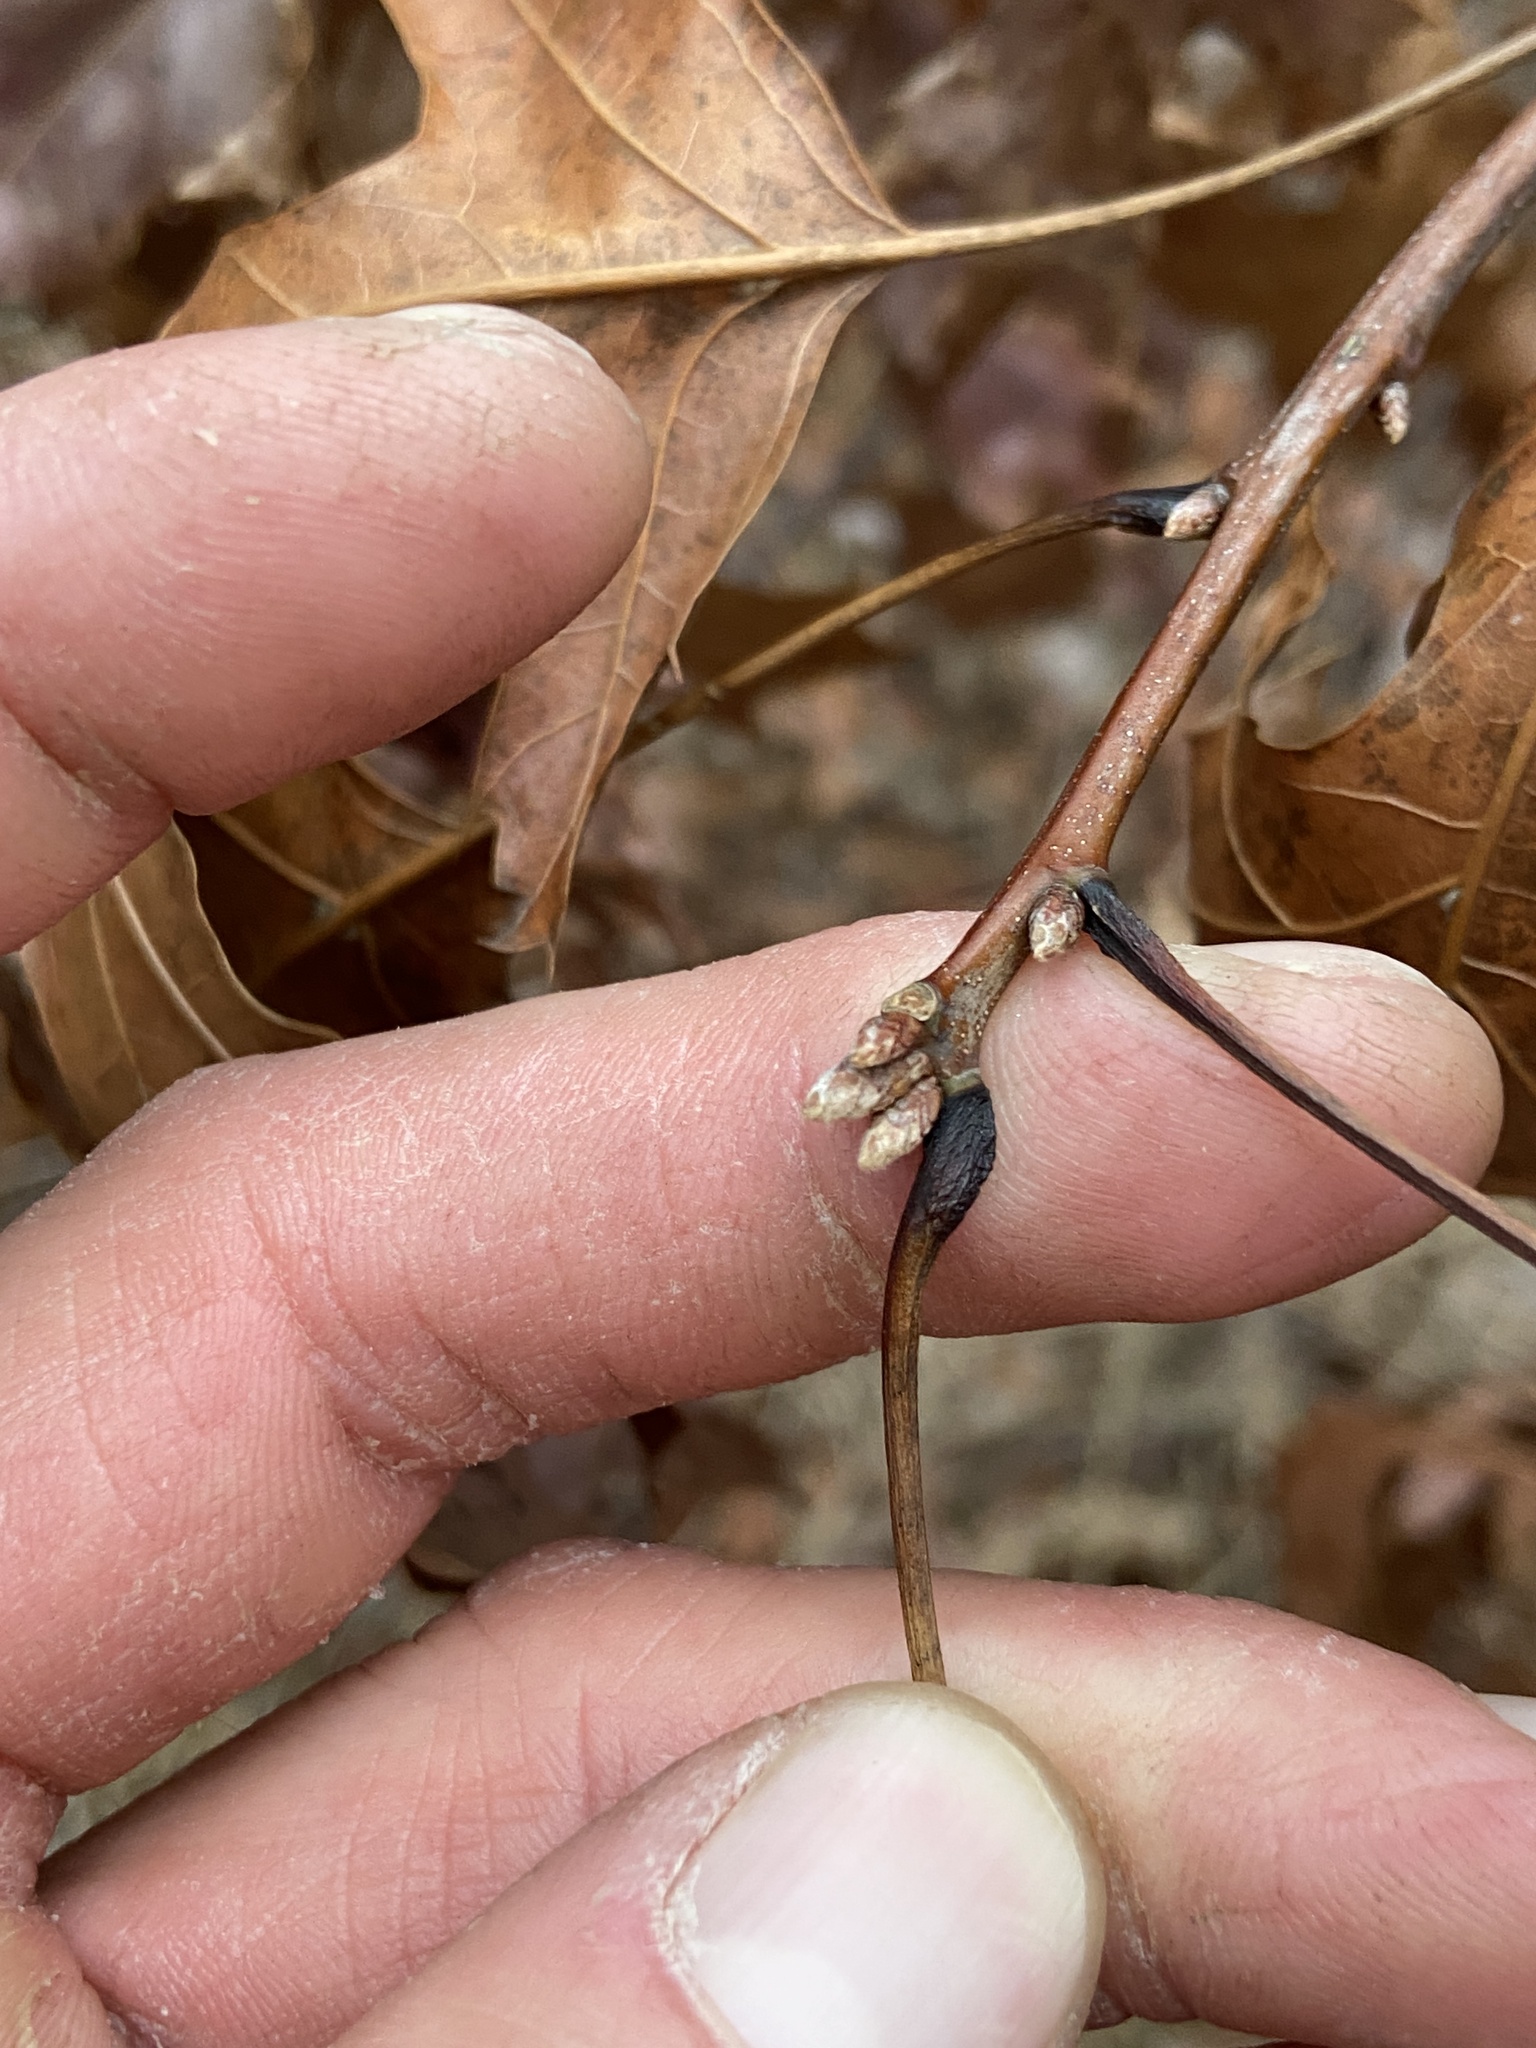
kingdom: Plantae
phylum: Tracheophyta
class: Magnoliopsida
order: Fagales
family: Fagaceae
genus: Quercus
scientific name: Quercus coccinea
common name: Scarlet oak
